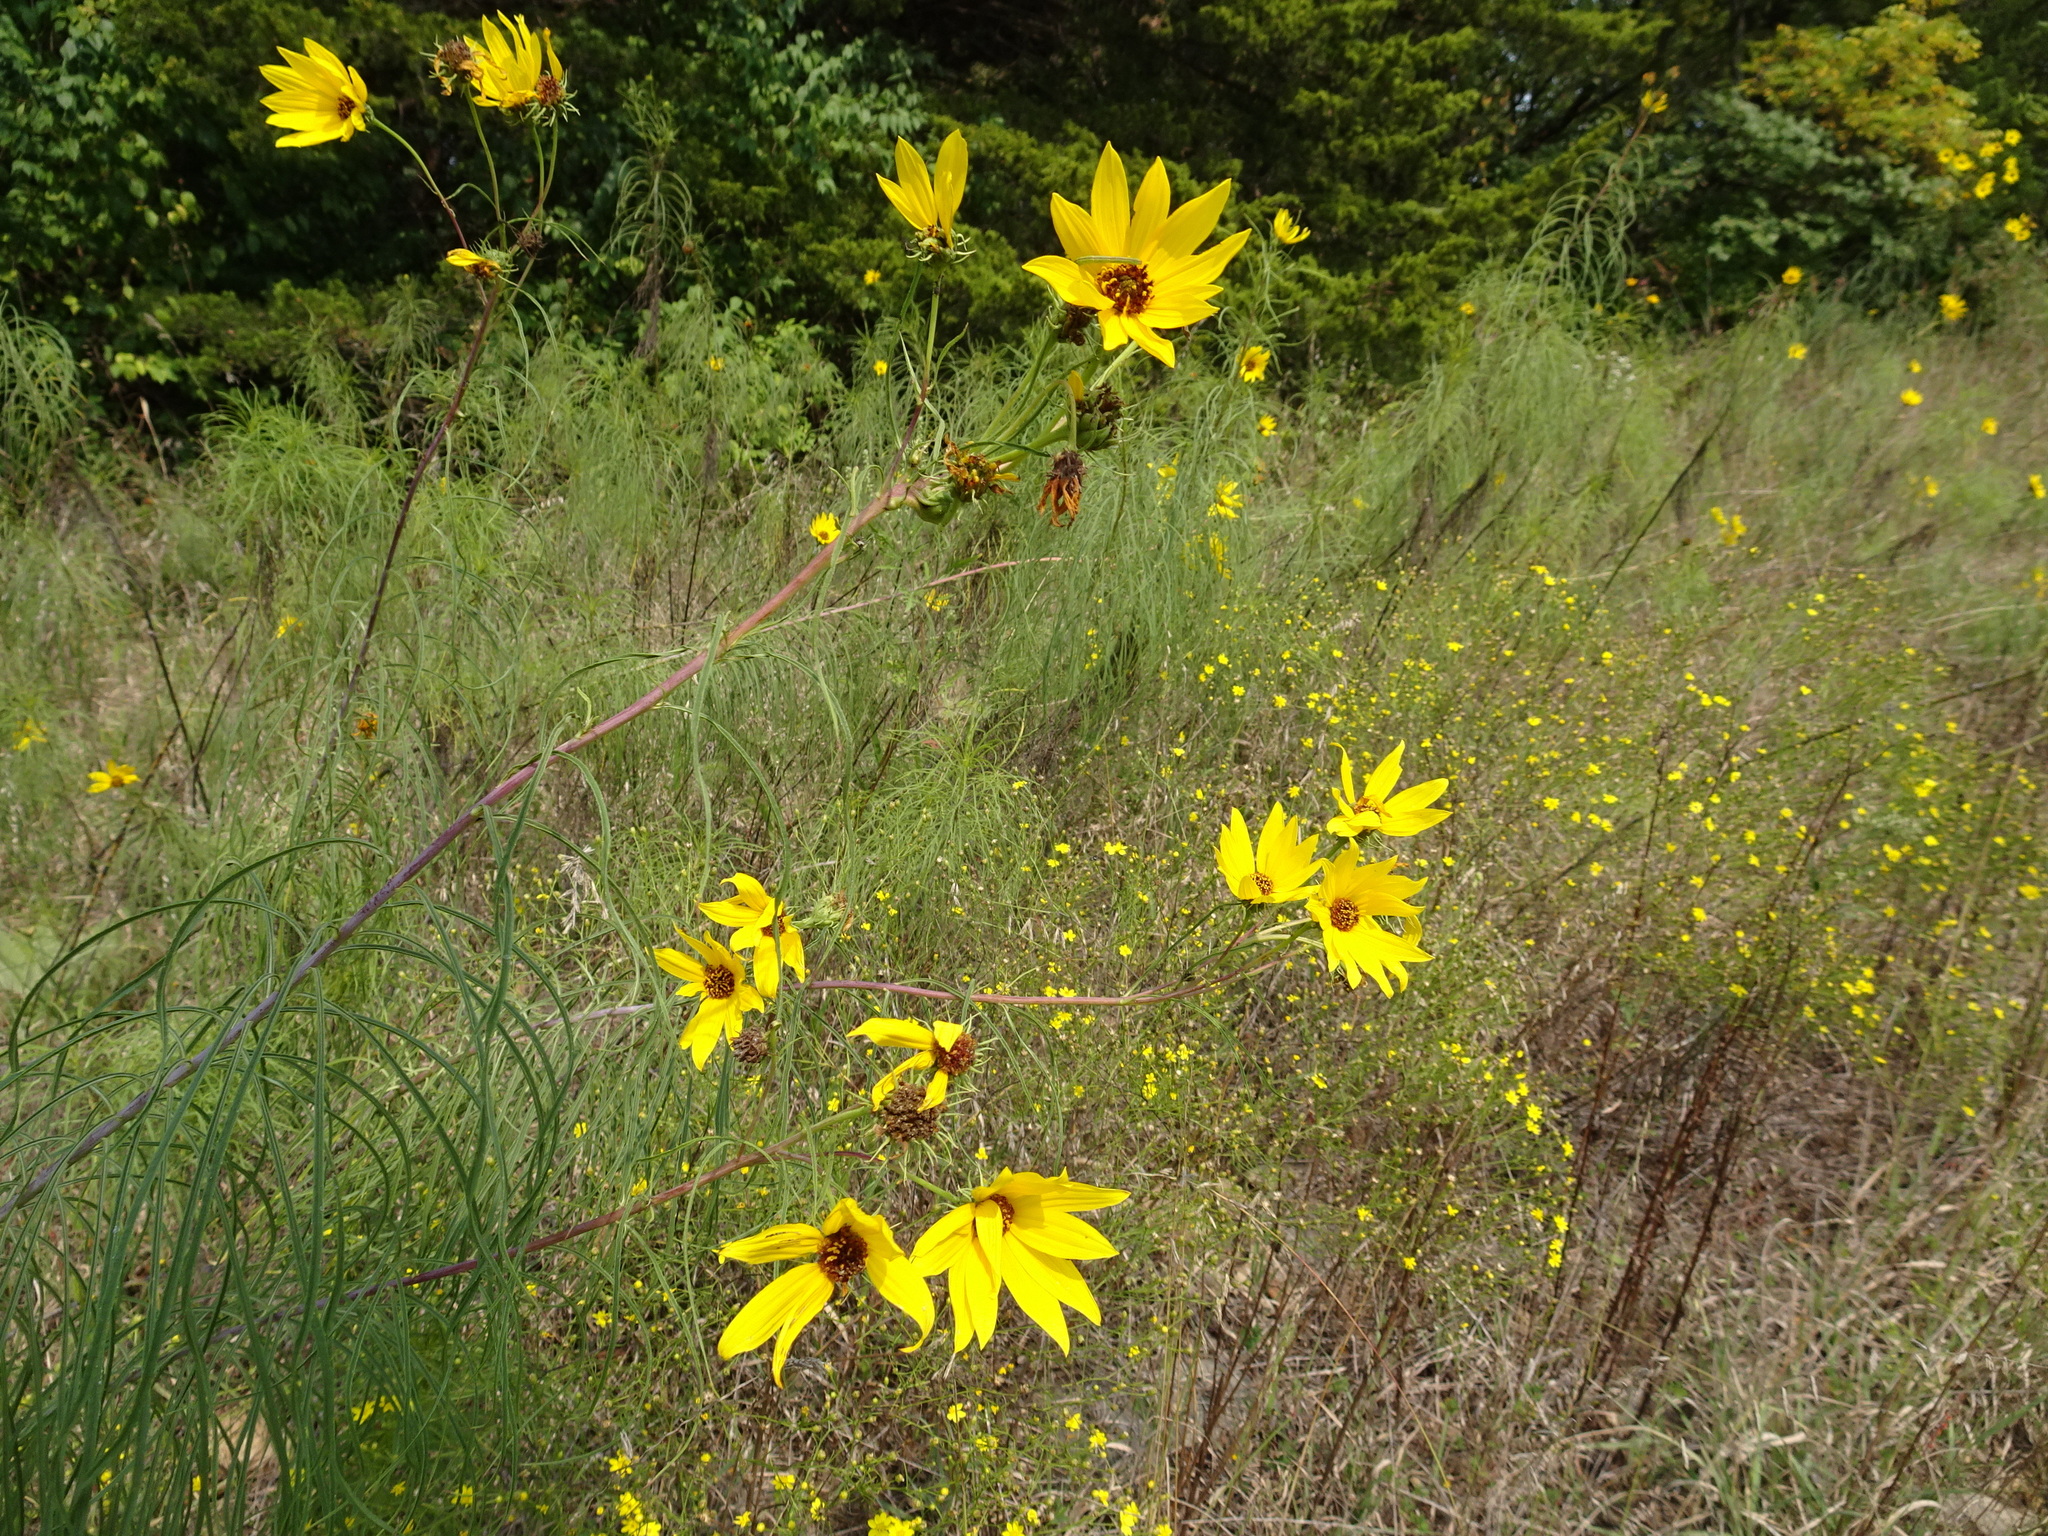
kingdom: Plantae
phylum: Tracheophyta
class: Magnoliopsida
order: Asterales
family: Asteraceae
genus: Helianthus
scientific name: Helianthus salicifolius
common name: Willowleaf sunflower
